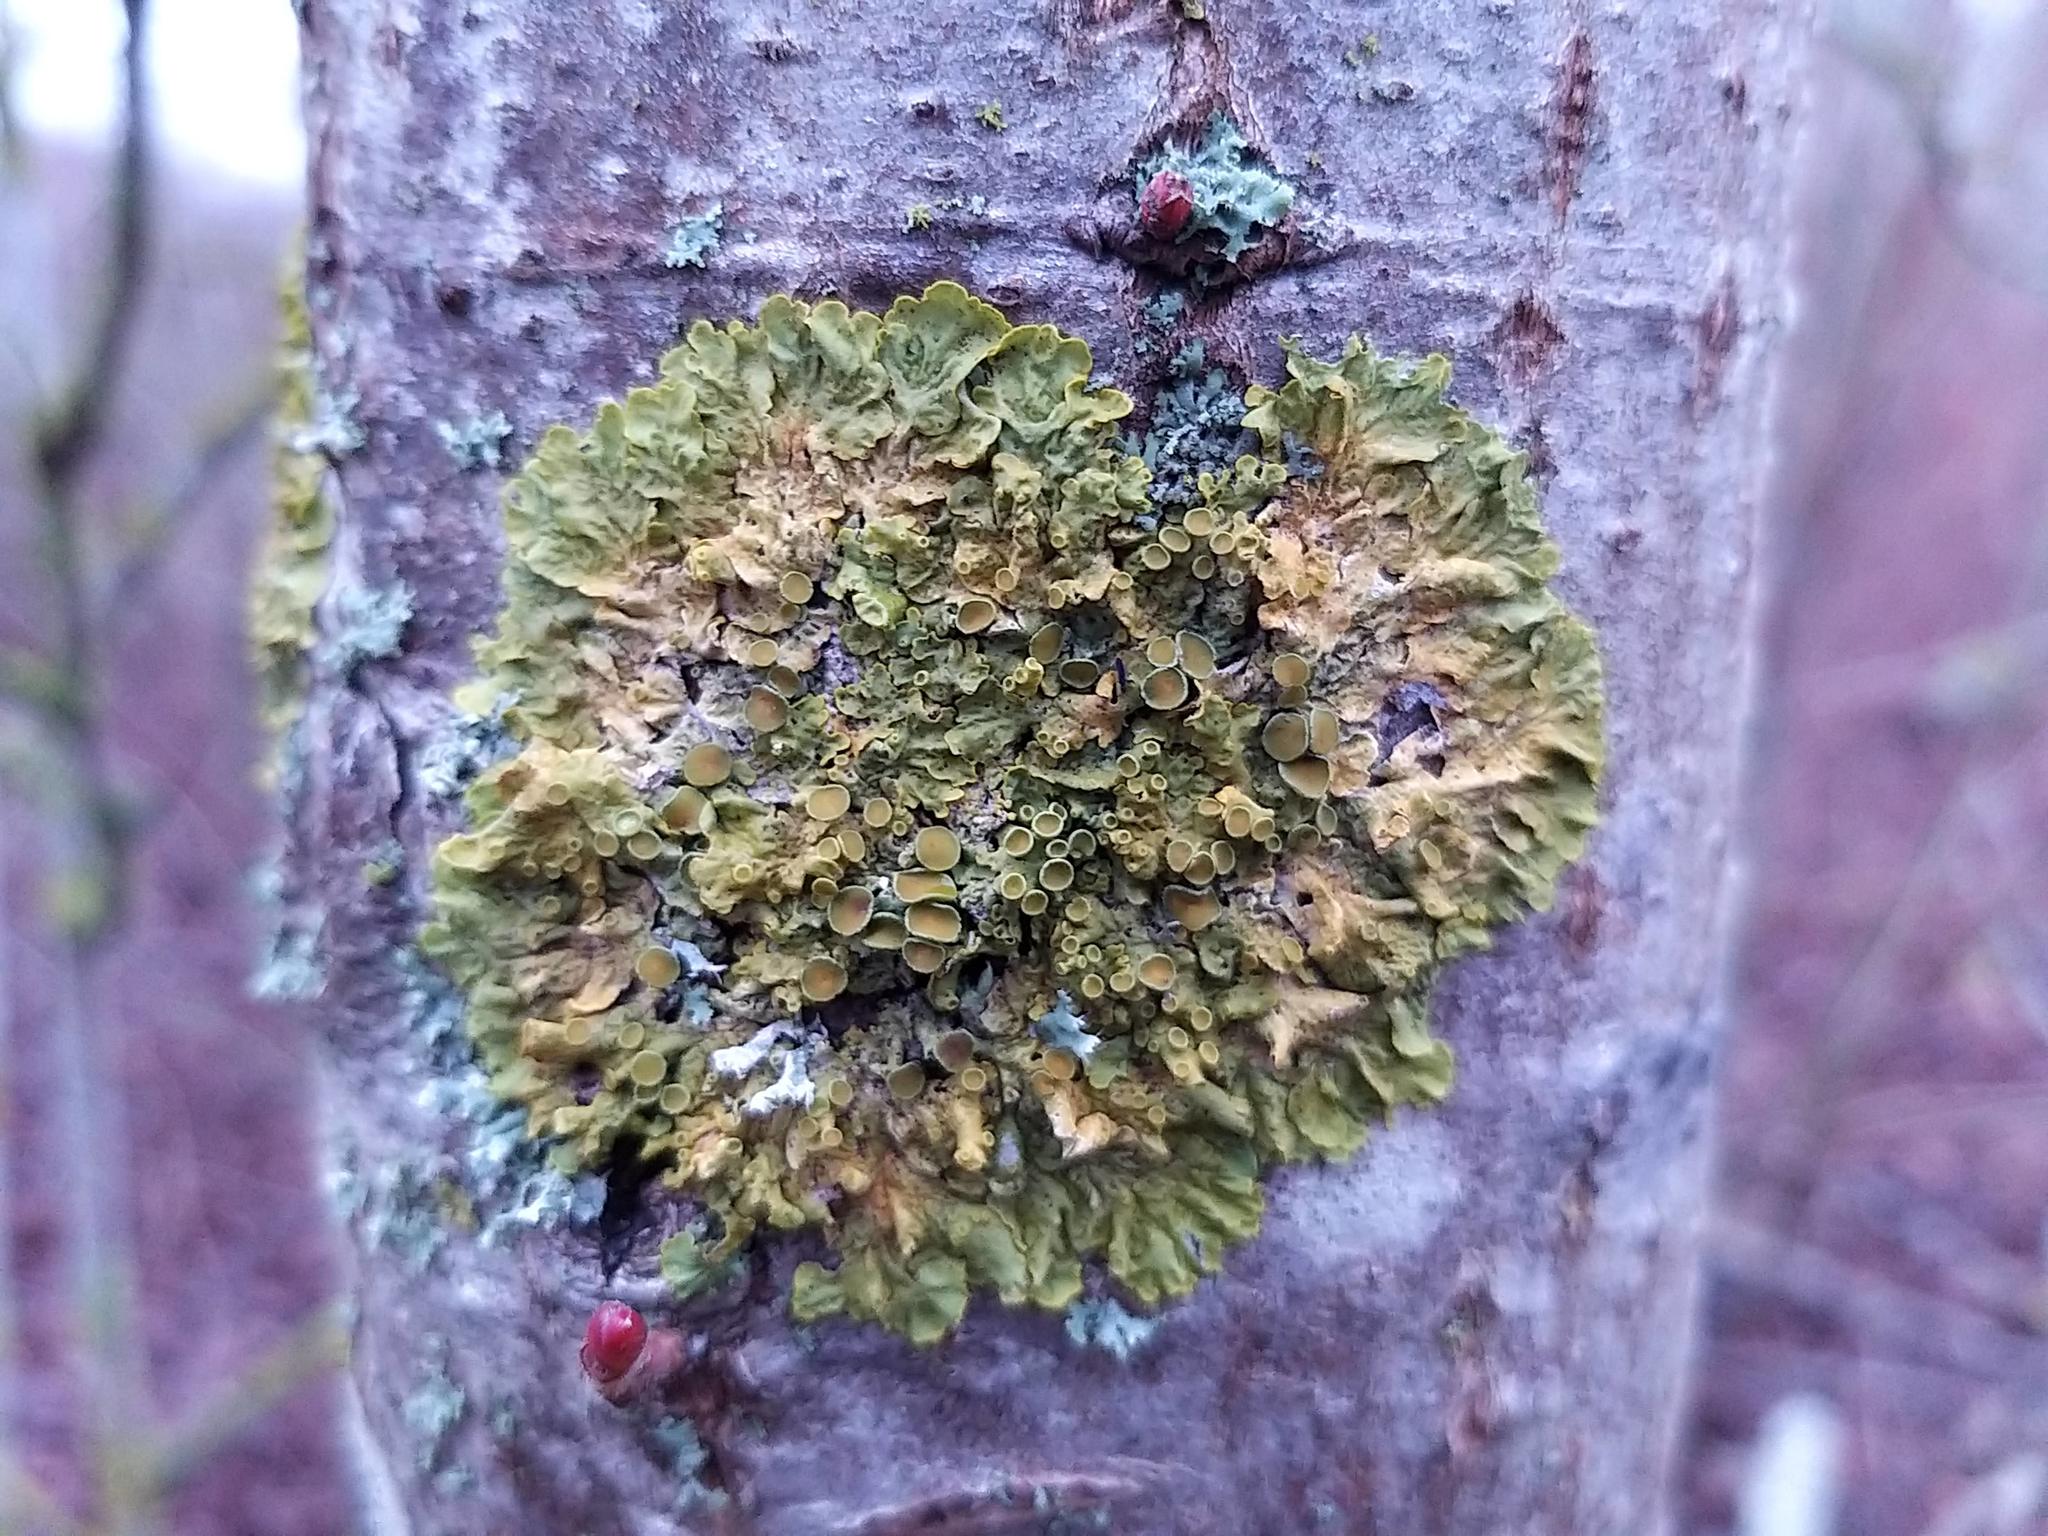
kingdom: Fungi
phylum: Ascomycota
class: Lecanoromycetes
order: Teloschistales
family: Teloschistaceae
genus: Xanthoria
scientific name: Xanthoria parietina
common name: Common orange lichen
